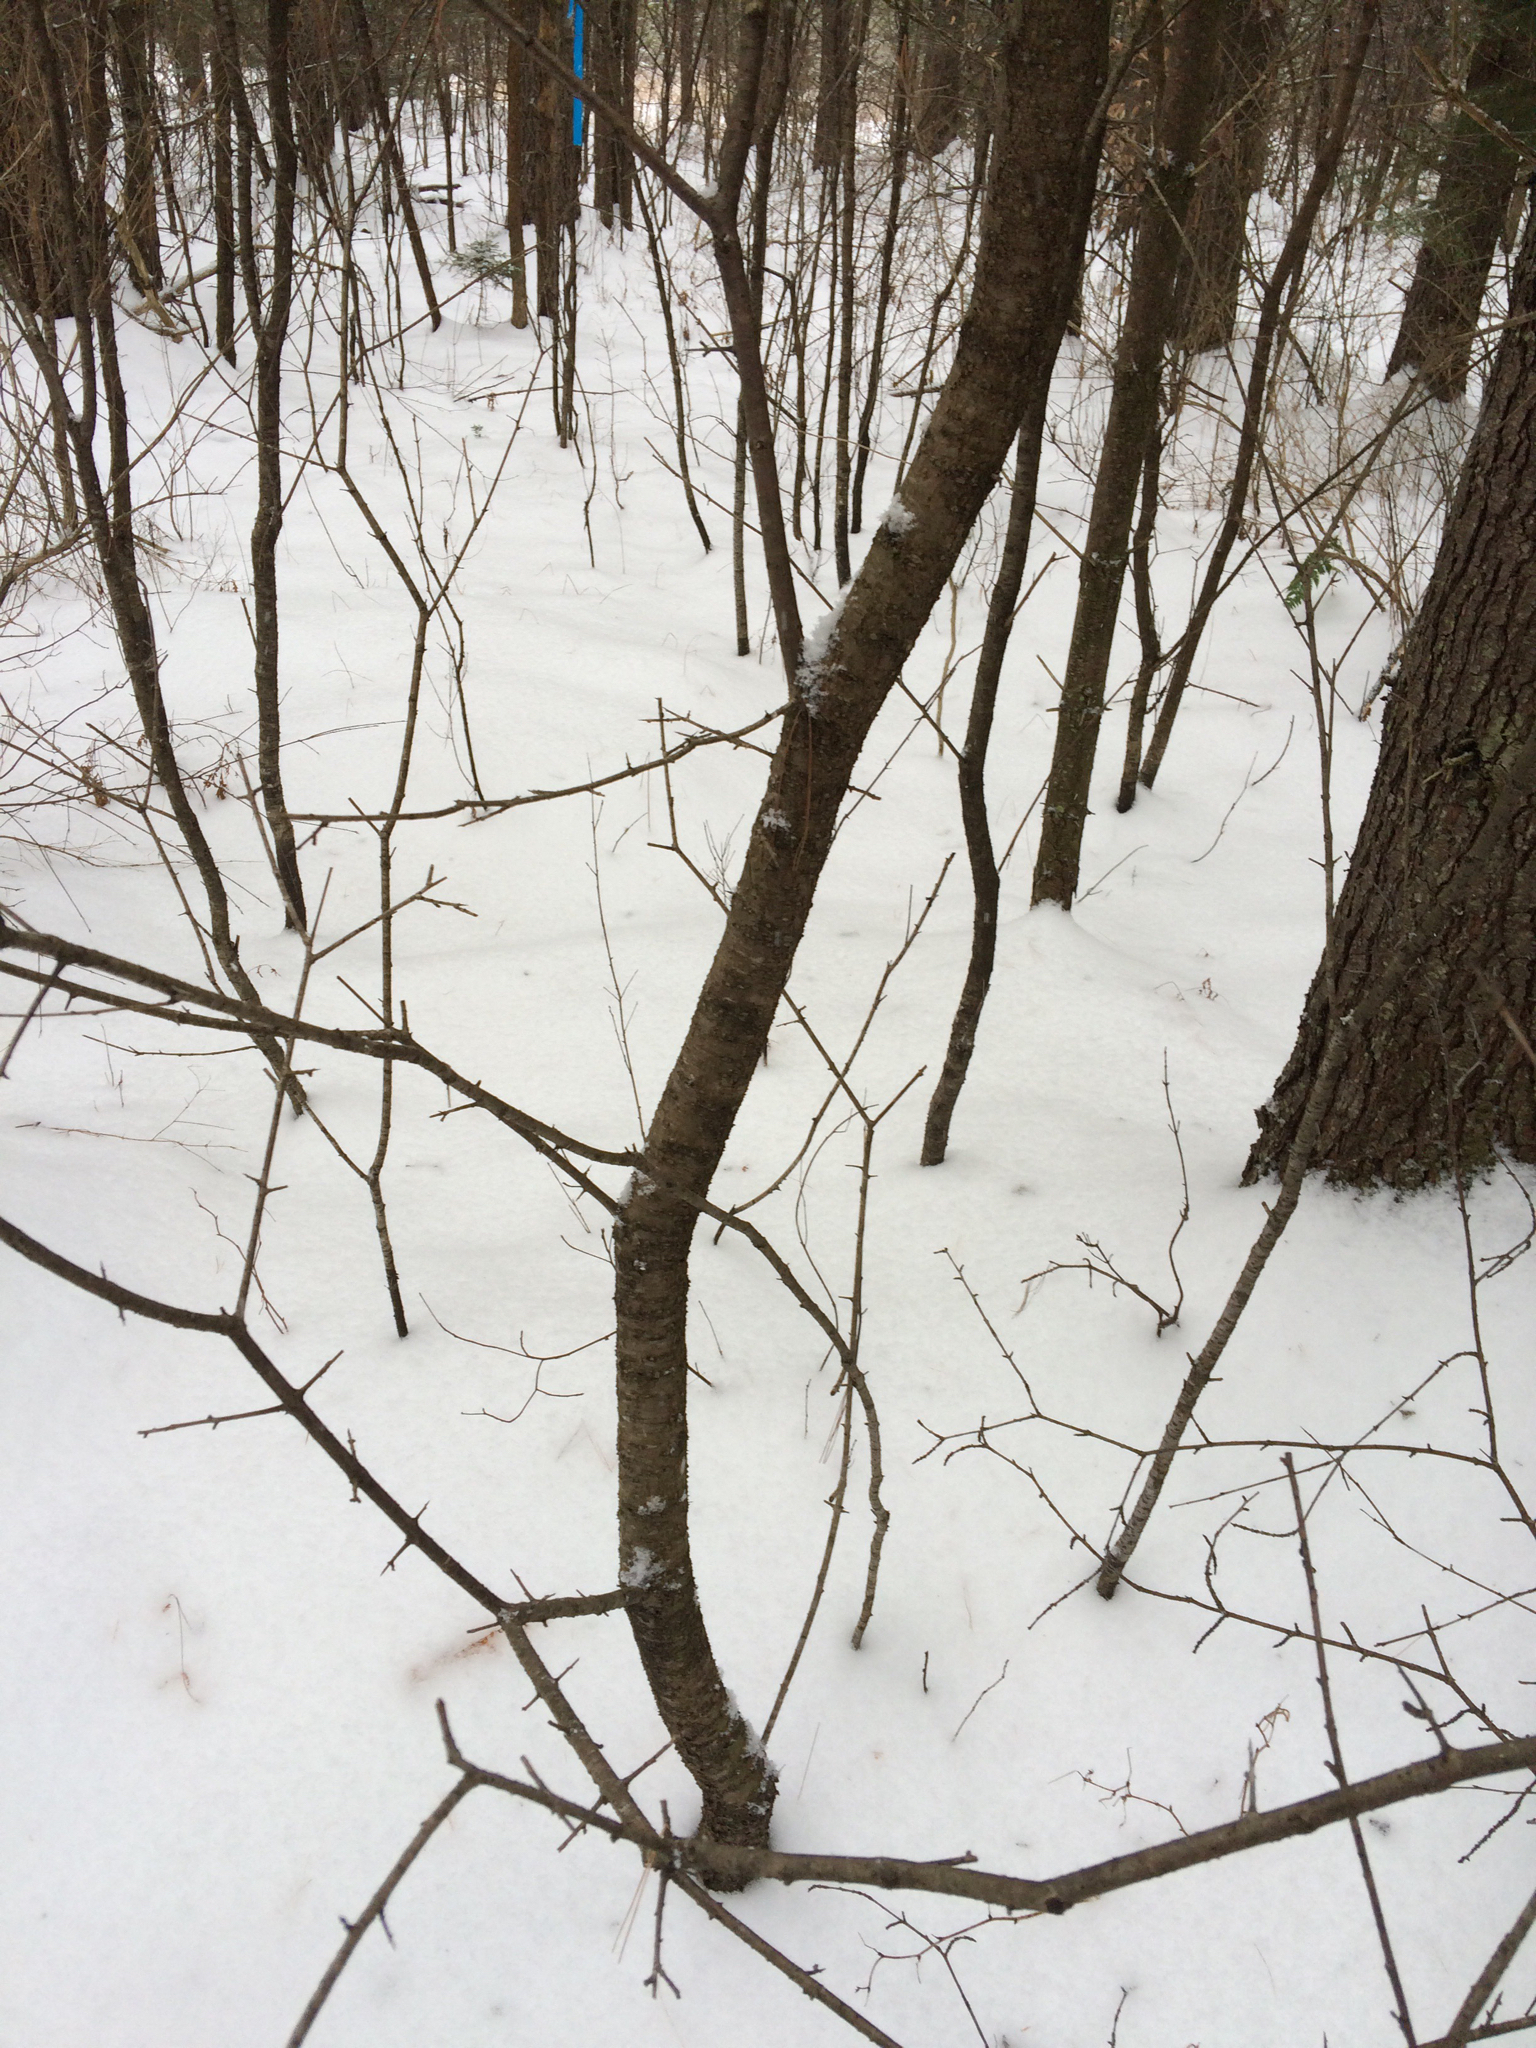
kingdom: Plantae
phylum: Tracheophyta
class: Magnoliopsida
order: Rosales
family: Rhamnaceae
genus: Rhamnus
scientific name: Rhamnus cathartica
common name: Common buckthorn
